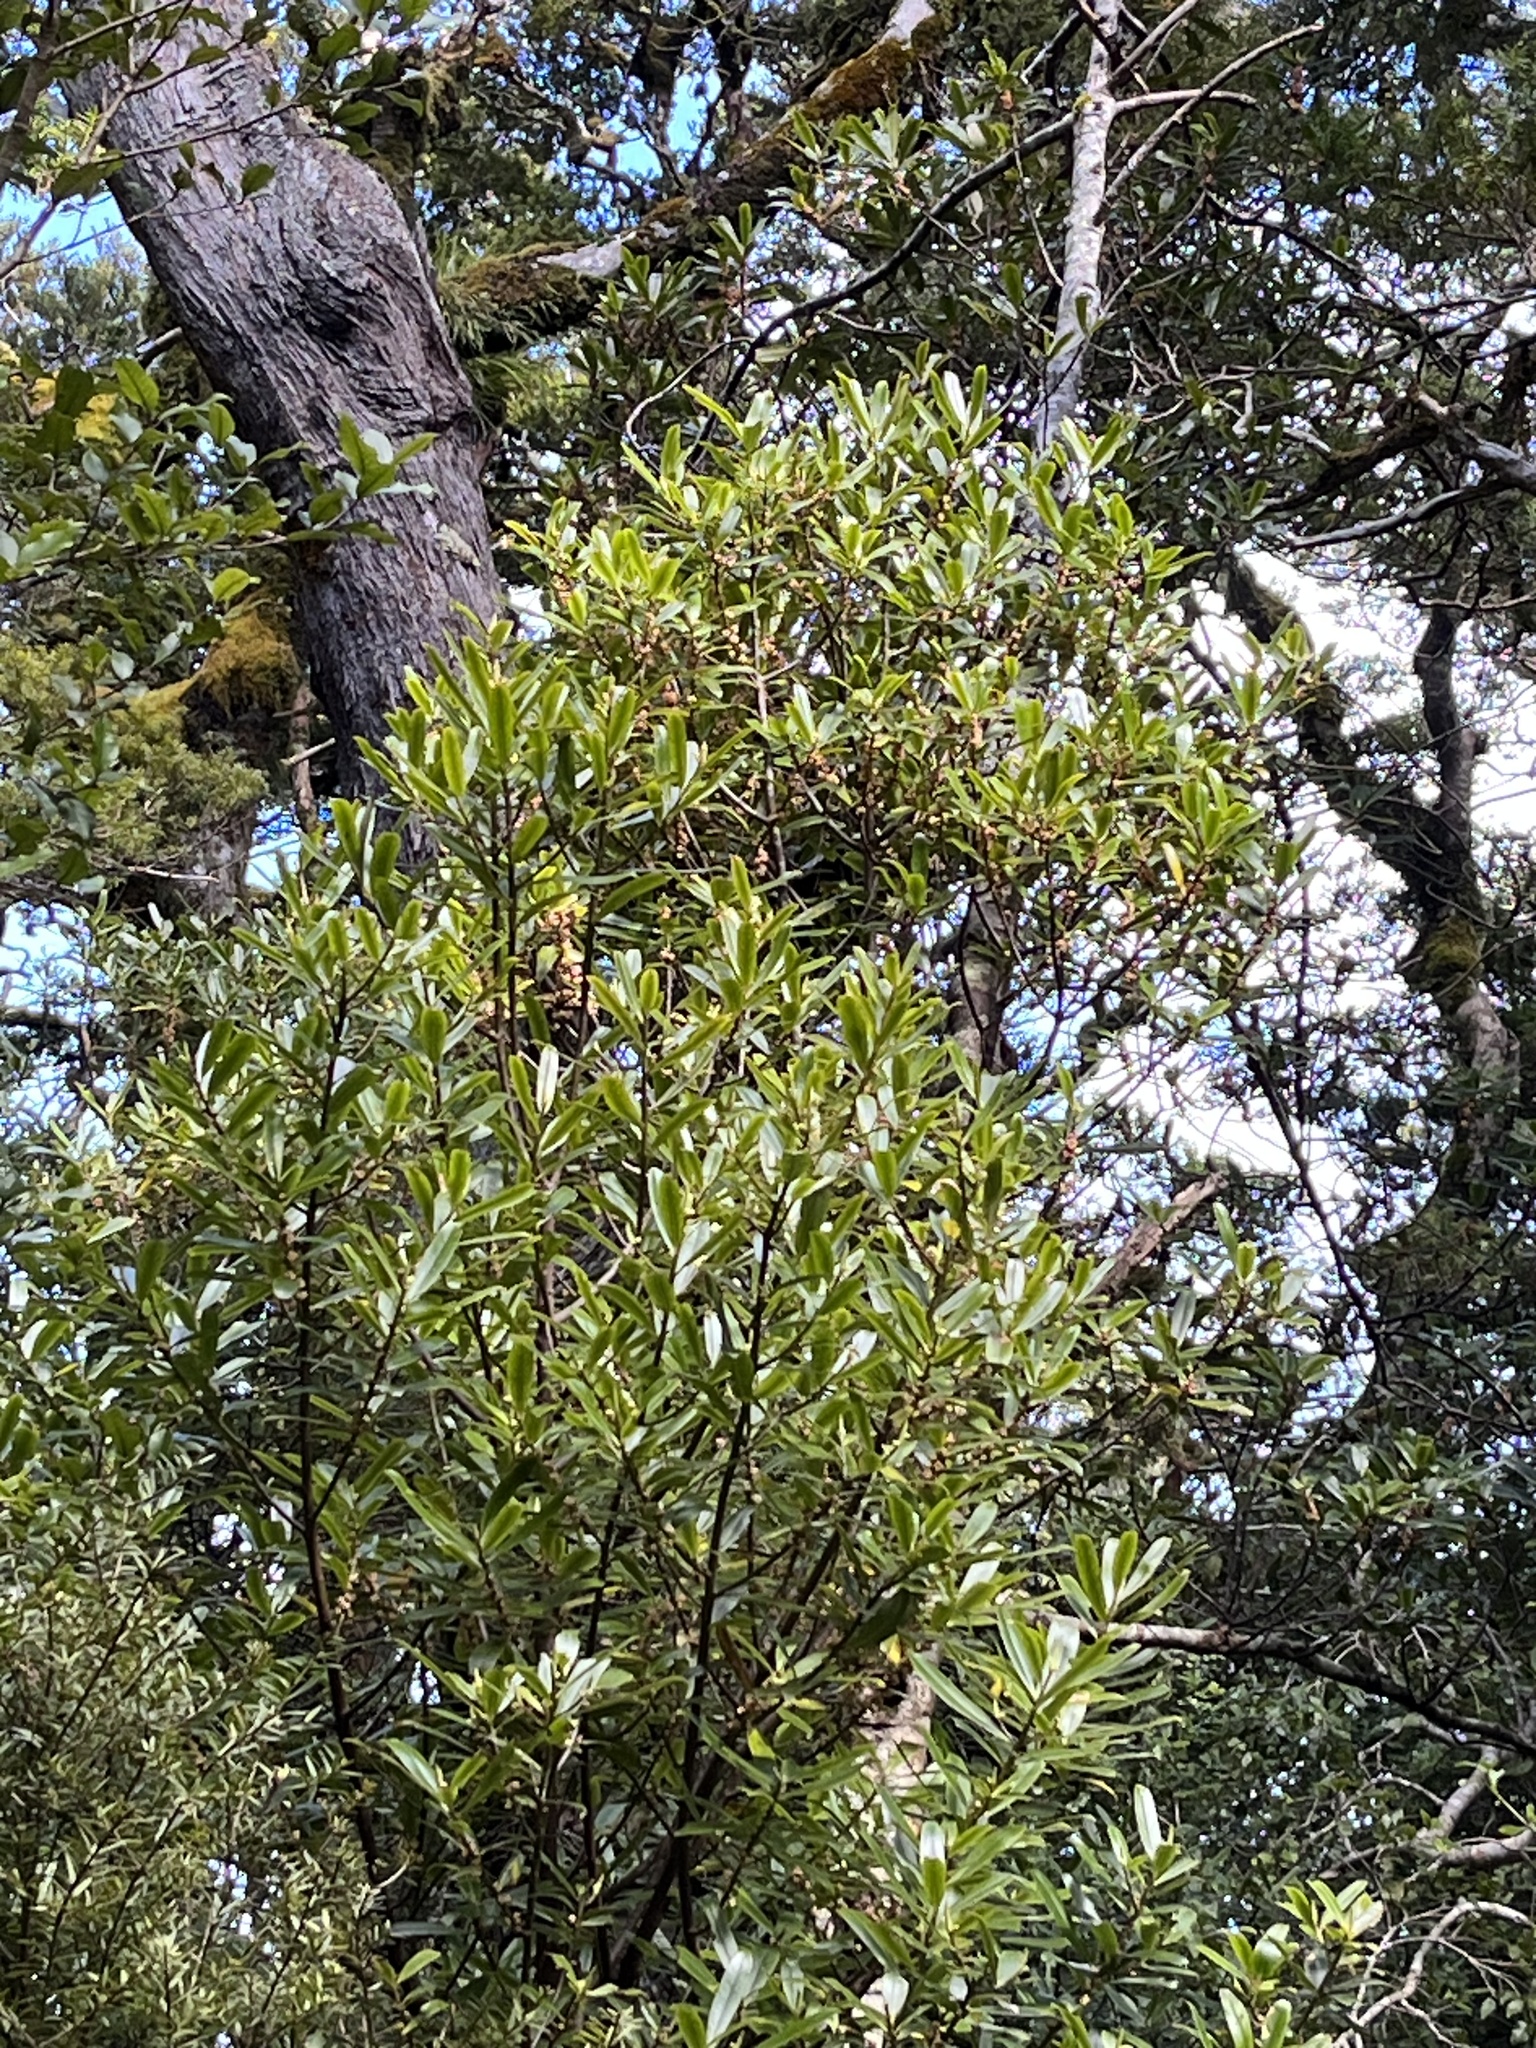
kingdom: Plantae
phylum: Tracheophyta
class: Magnoliopsida
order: Ericales
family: Primulaceae
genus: Myrsine
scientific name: Myrsine salicina
